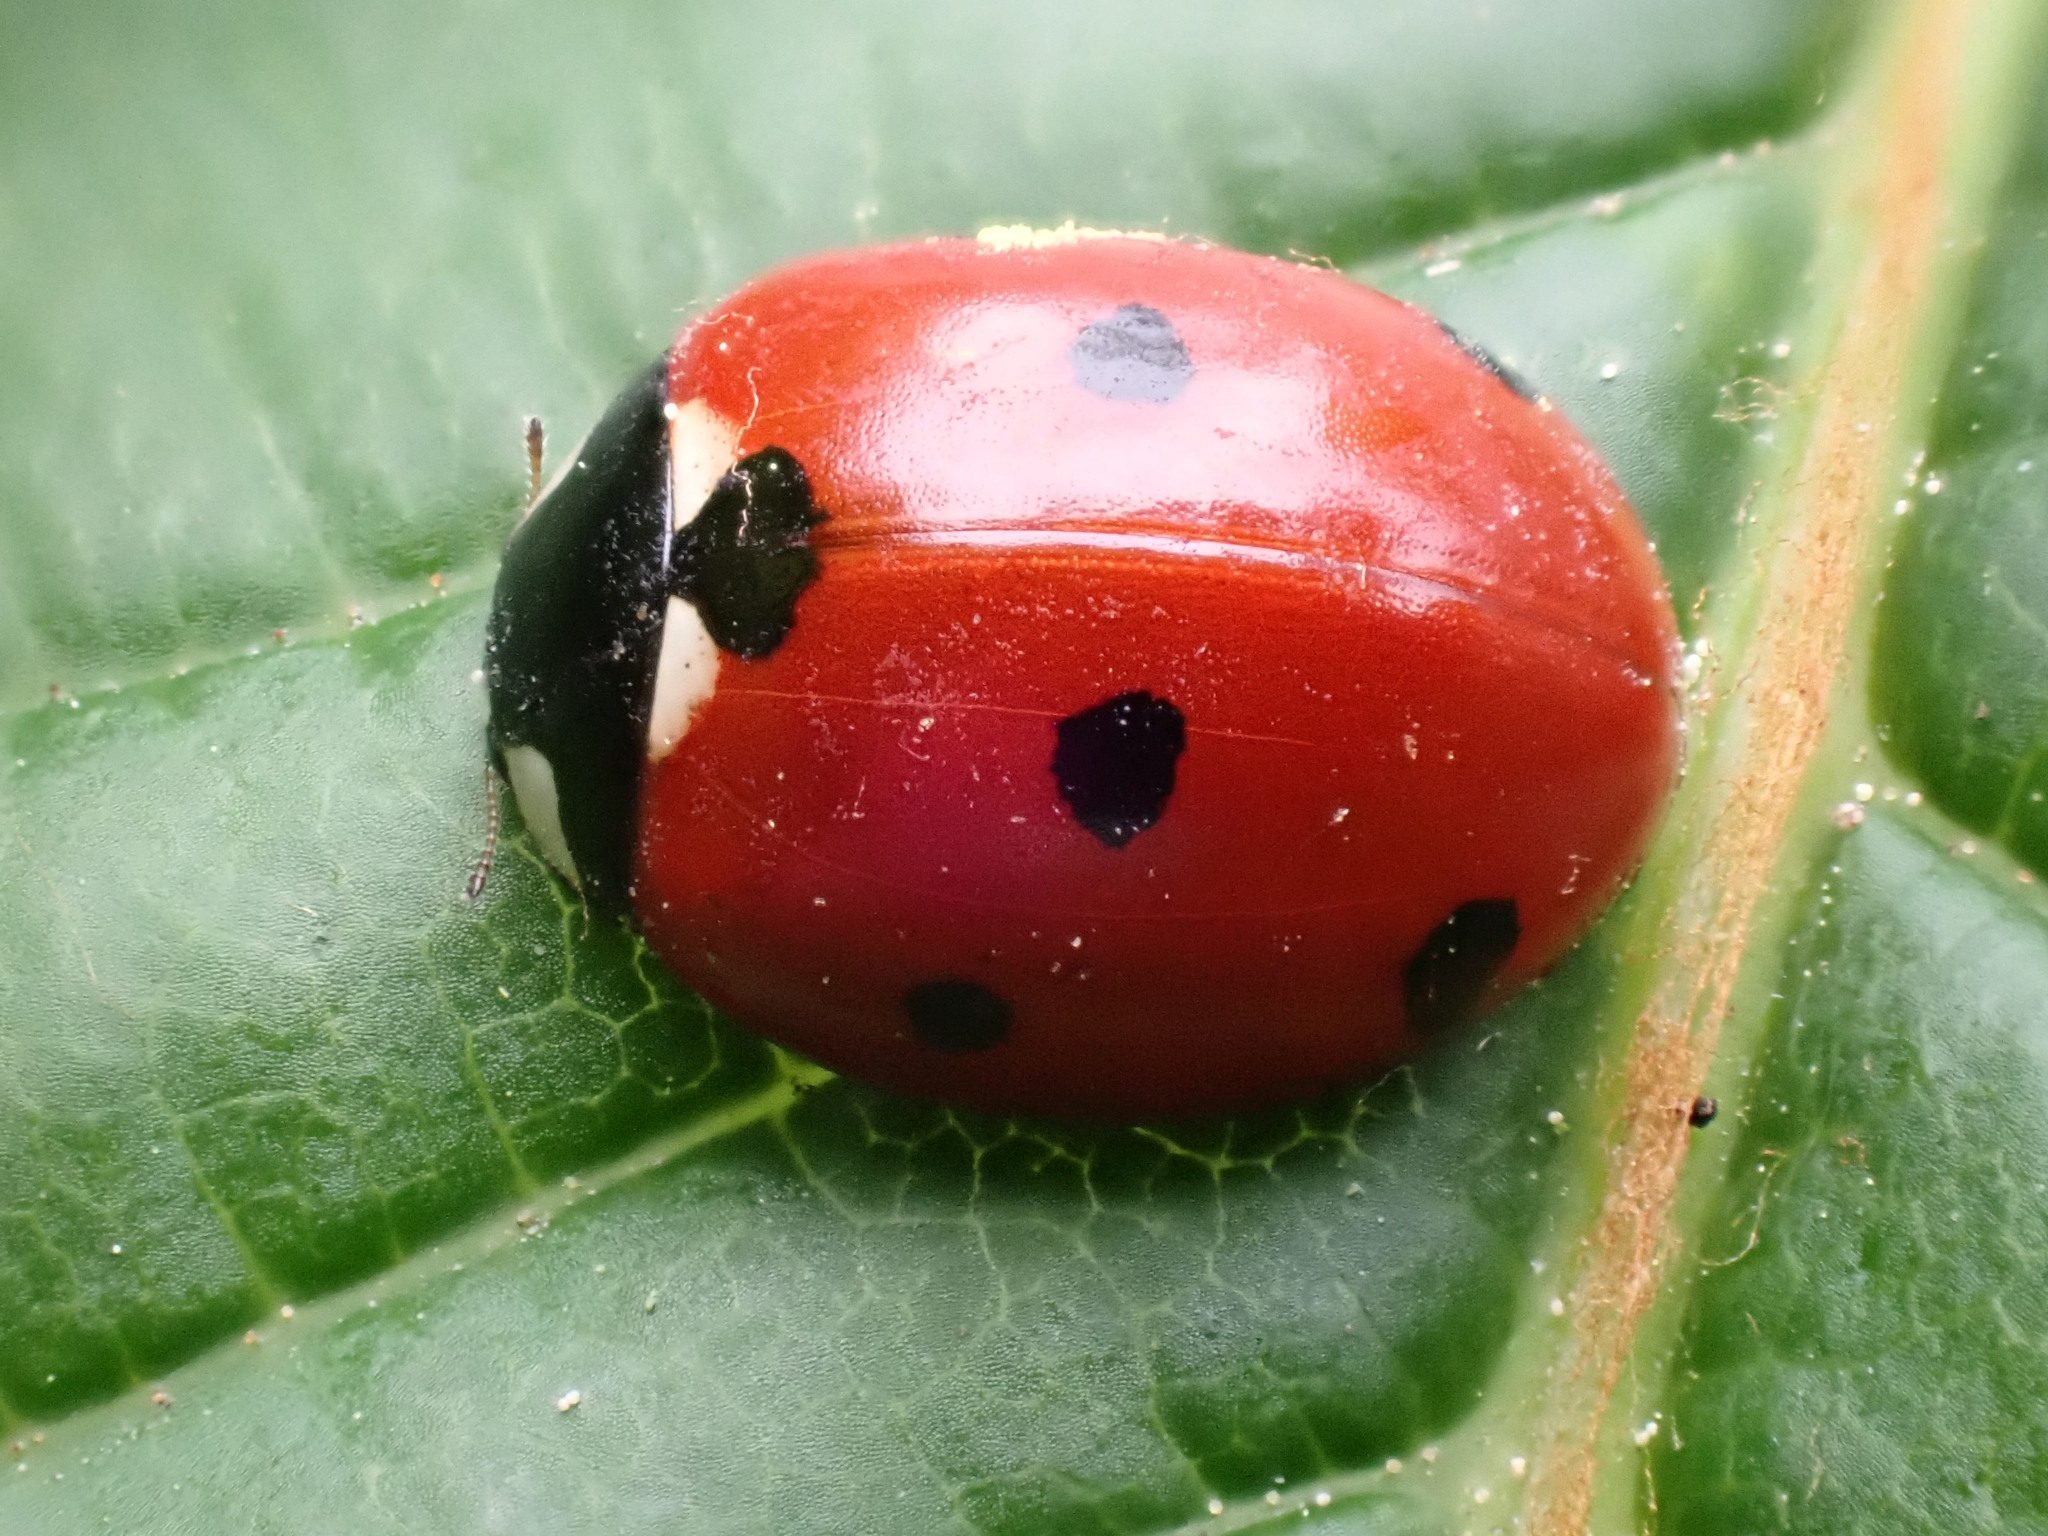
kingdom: Animalia
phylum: Arthropoda
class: Insecta
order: Coleoptera
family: Coccinellidae
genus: Coccinella
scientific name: Coccinella septempunctata
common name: Sevenspotted lady beetle
